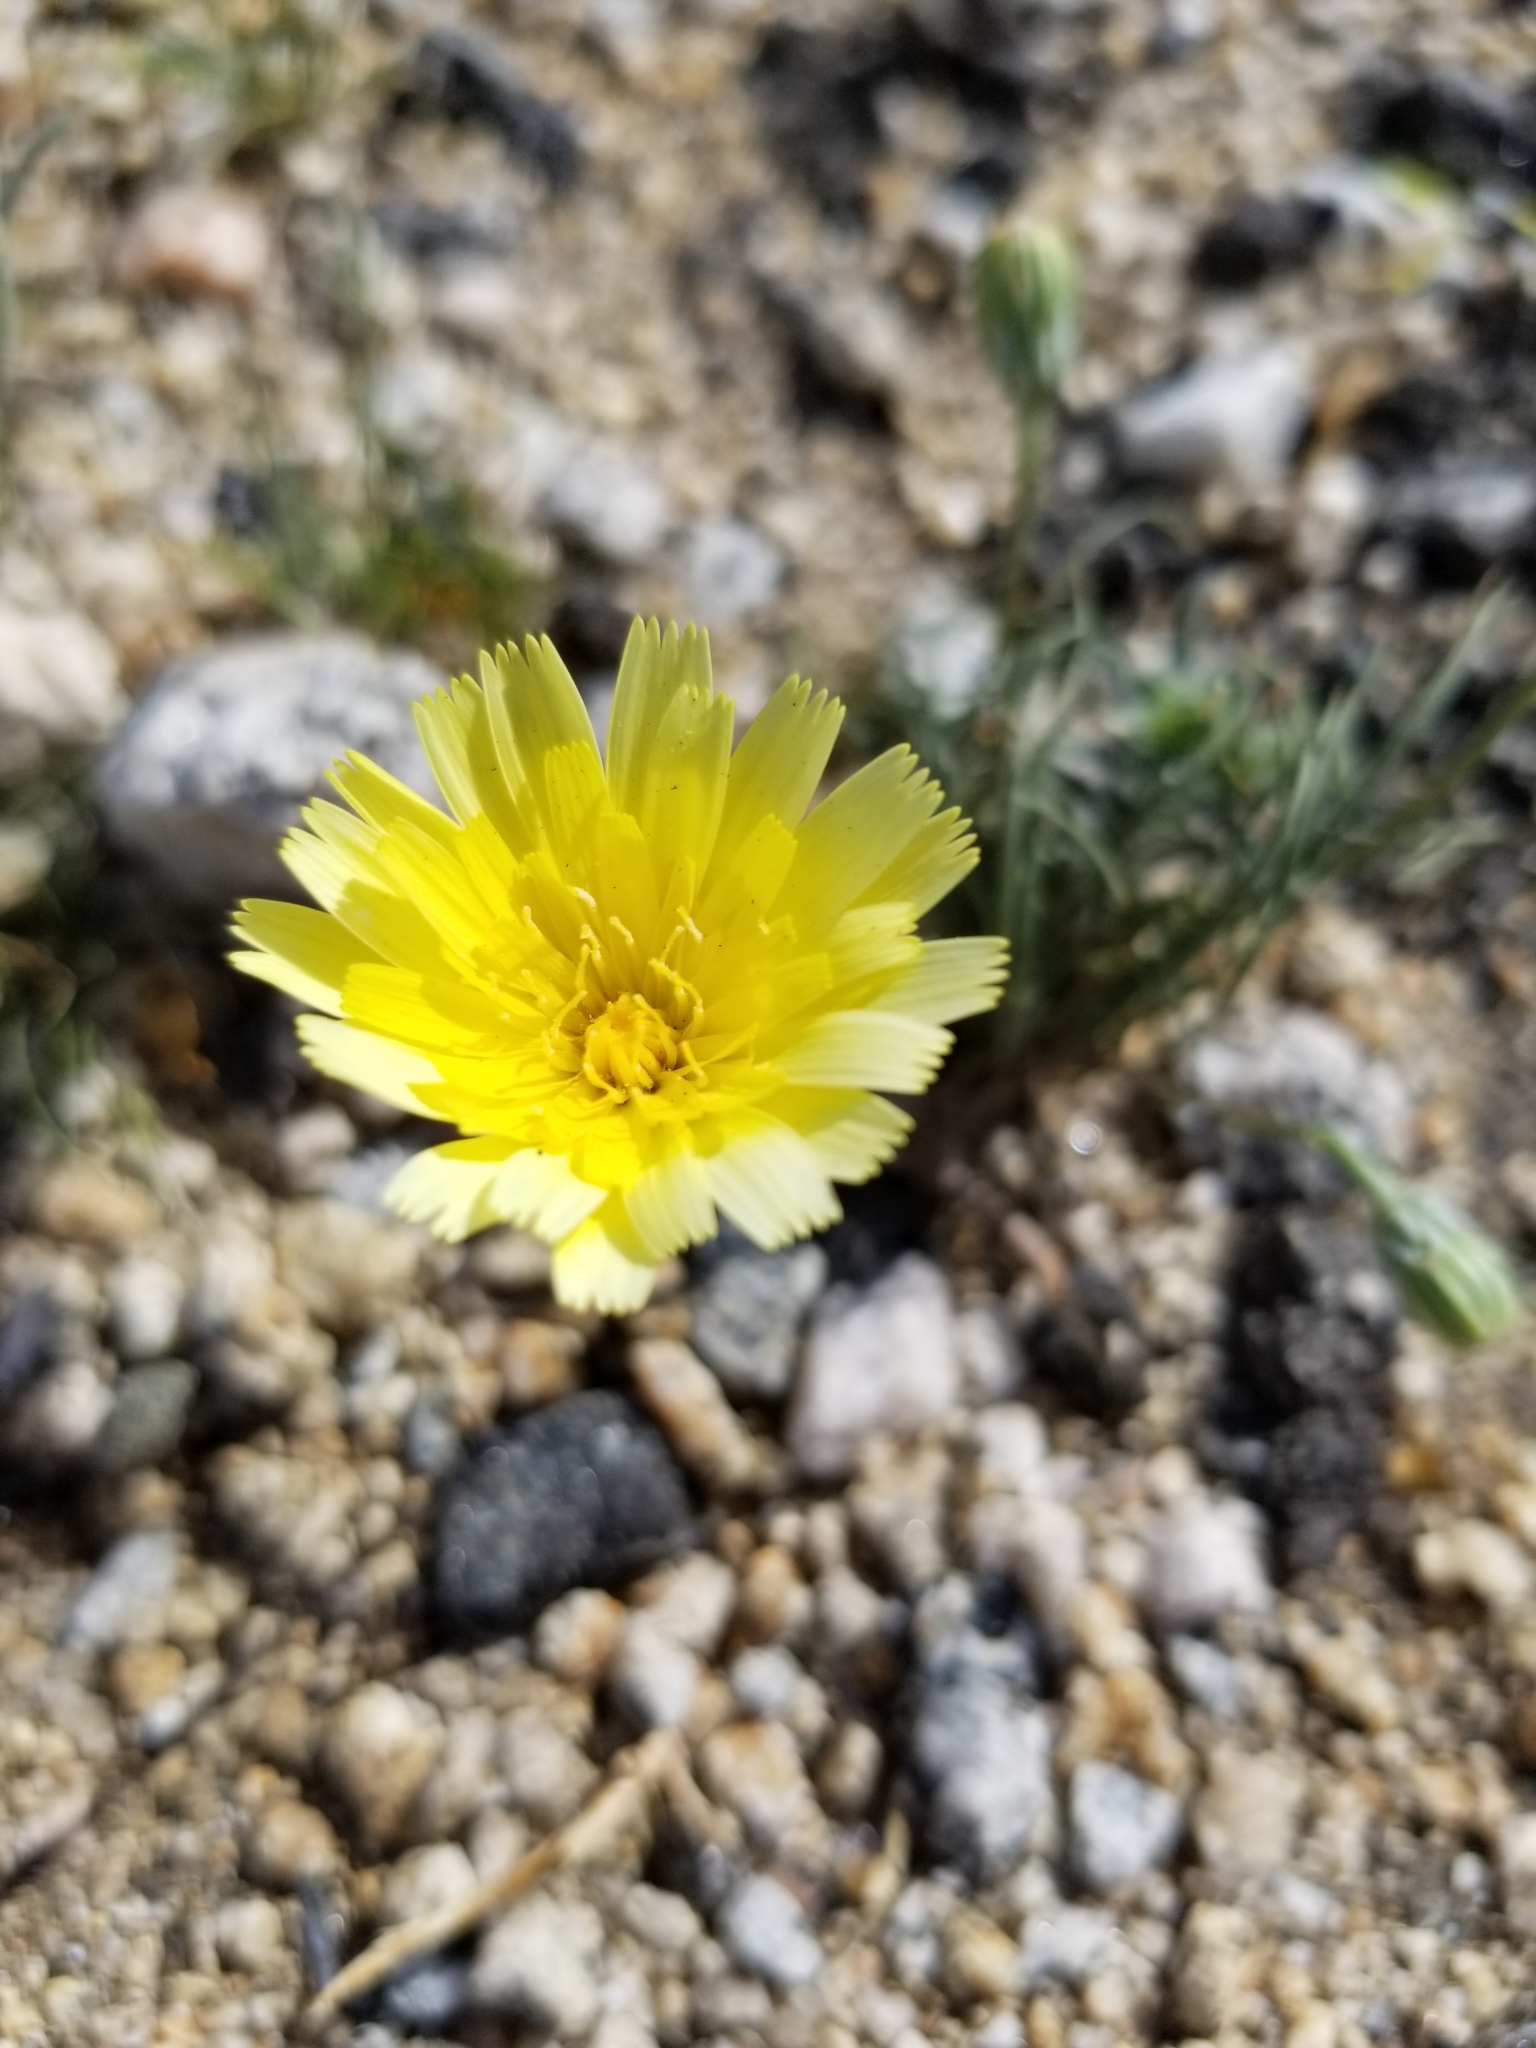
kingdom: Plantae
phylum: Tracheophyta
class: Magnoliopsida
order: Asterales
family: Asteraceae
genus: Malacothrix
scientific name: Malacothrix glabrata
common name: Smooth desert-dandelion
